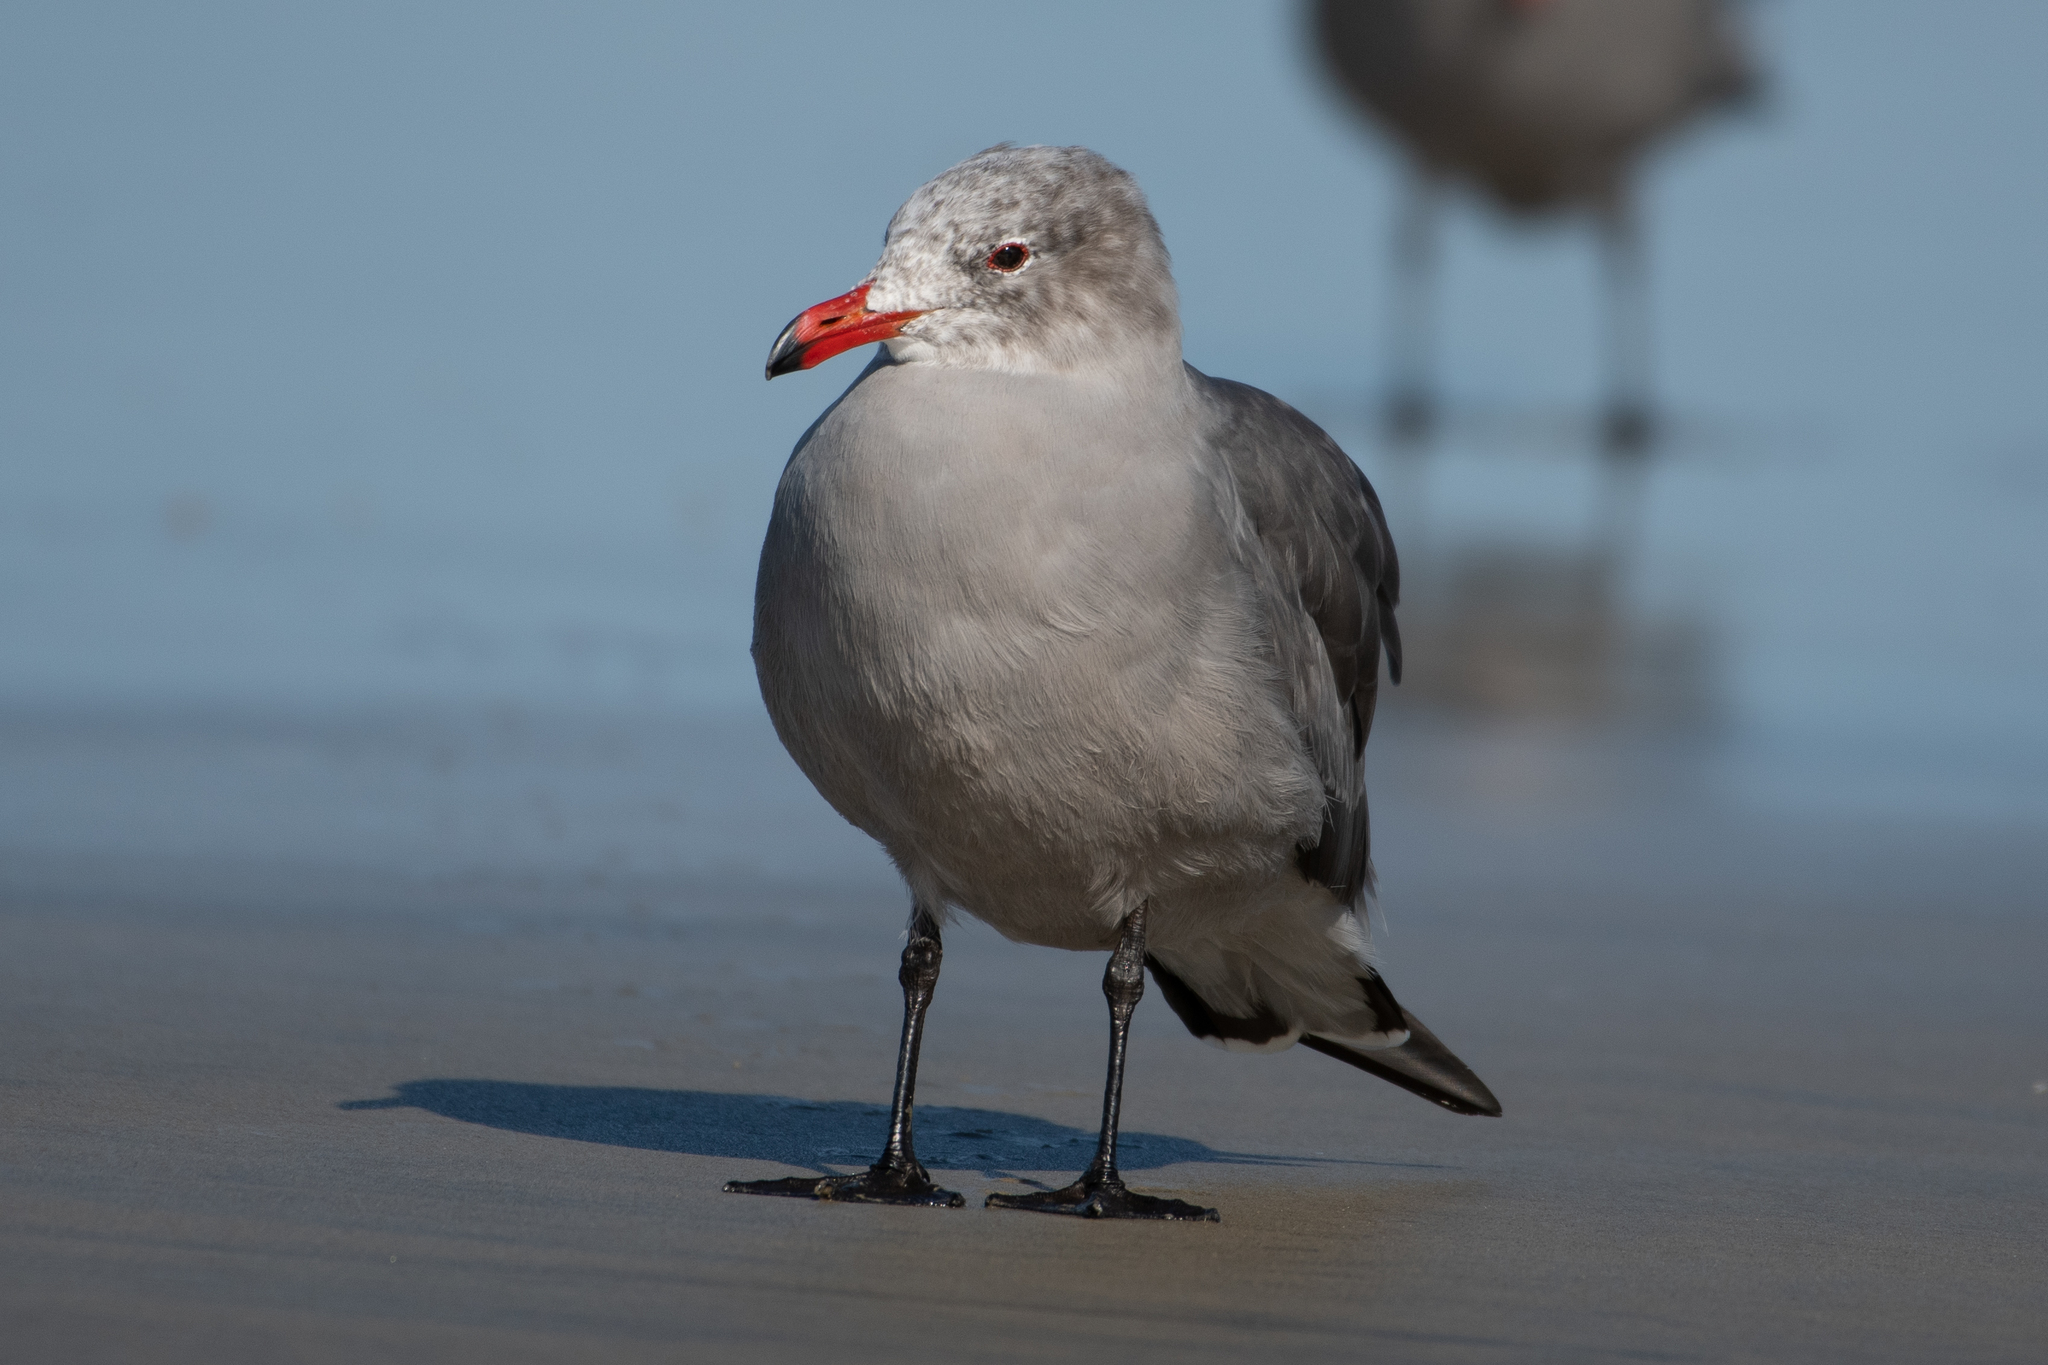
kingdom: Animalia
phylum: Chordata
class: Aves
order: Charadriiformes
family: Laridae
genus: Larus
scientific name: Larus heermanni
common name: Heermann's gull
